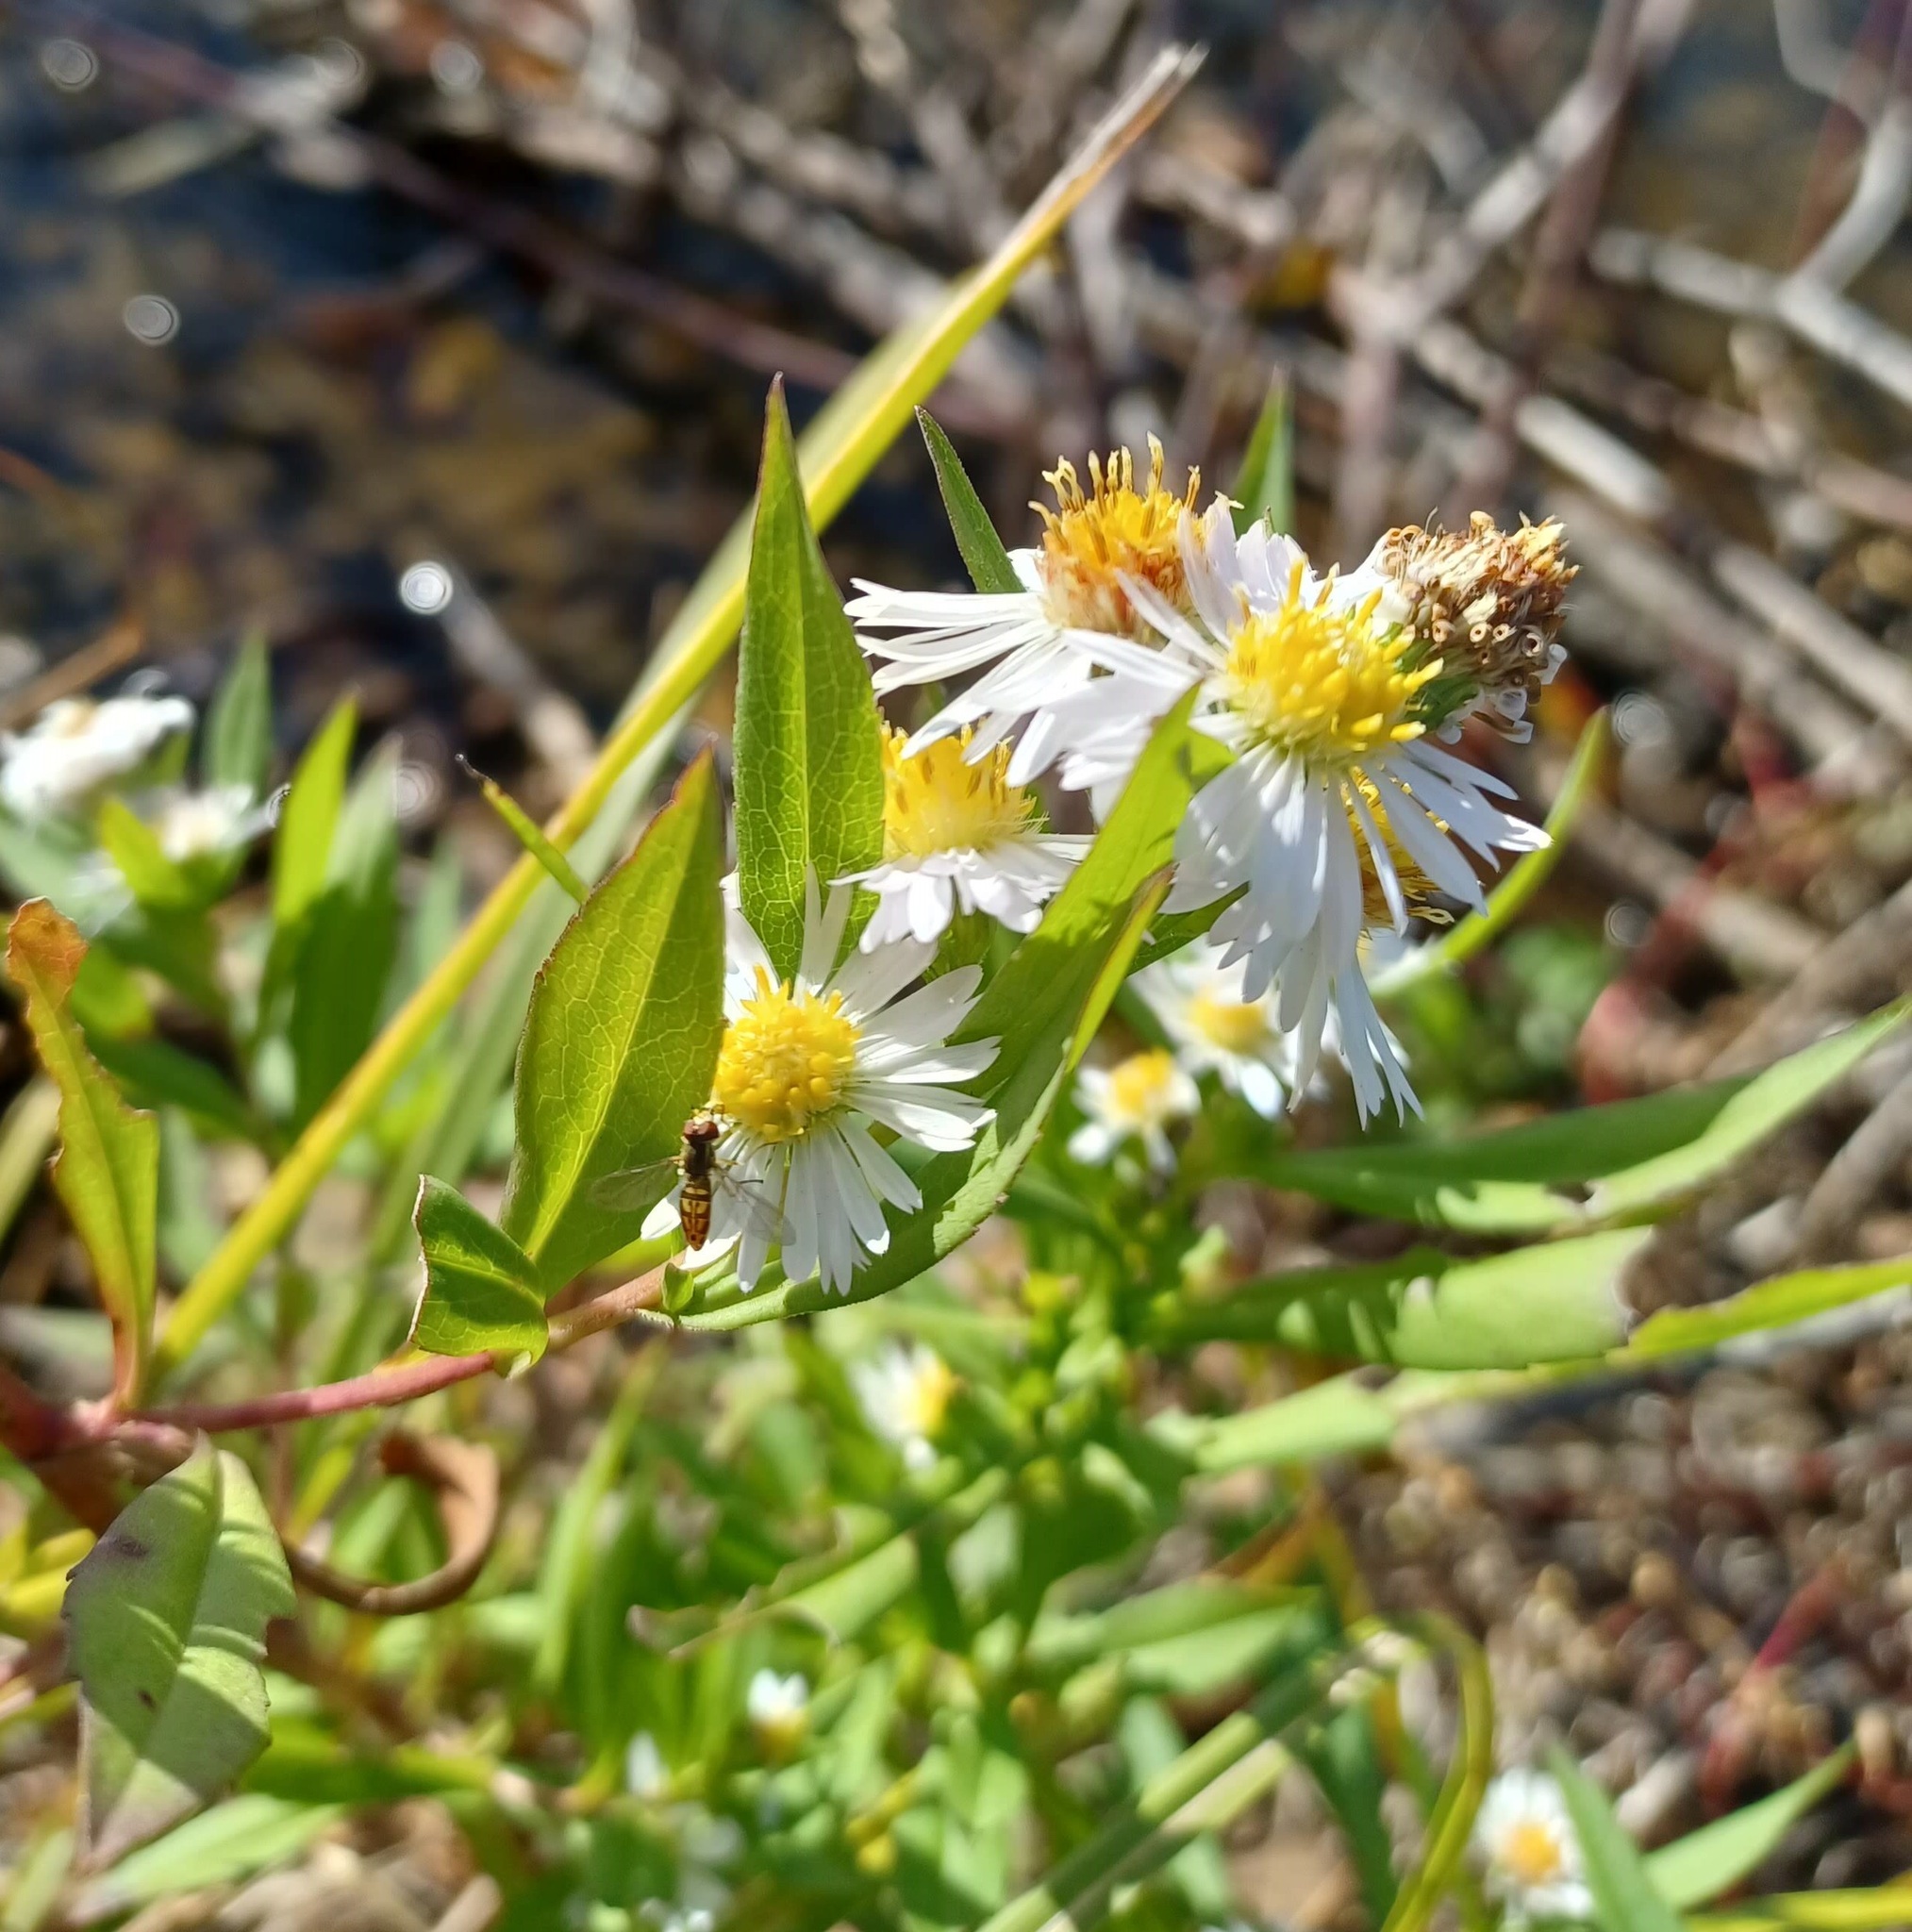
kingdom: Animalia
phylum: Arthropoda
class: Insecta
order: Diptera
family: Syrphidae
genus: Toxomerus
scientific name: Toxomerus marginatus
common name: Syrphid fly
